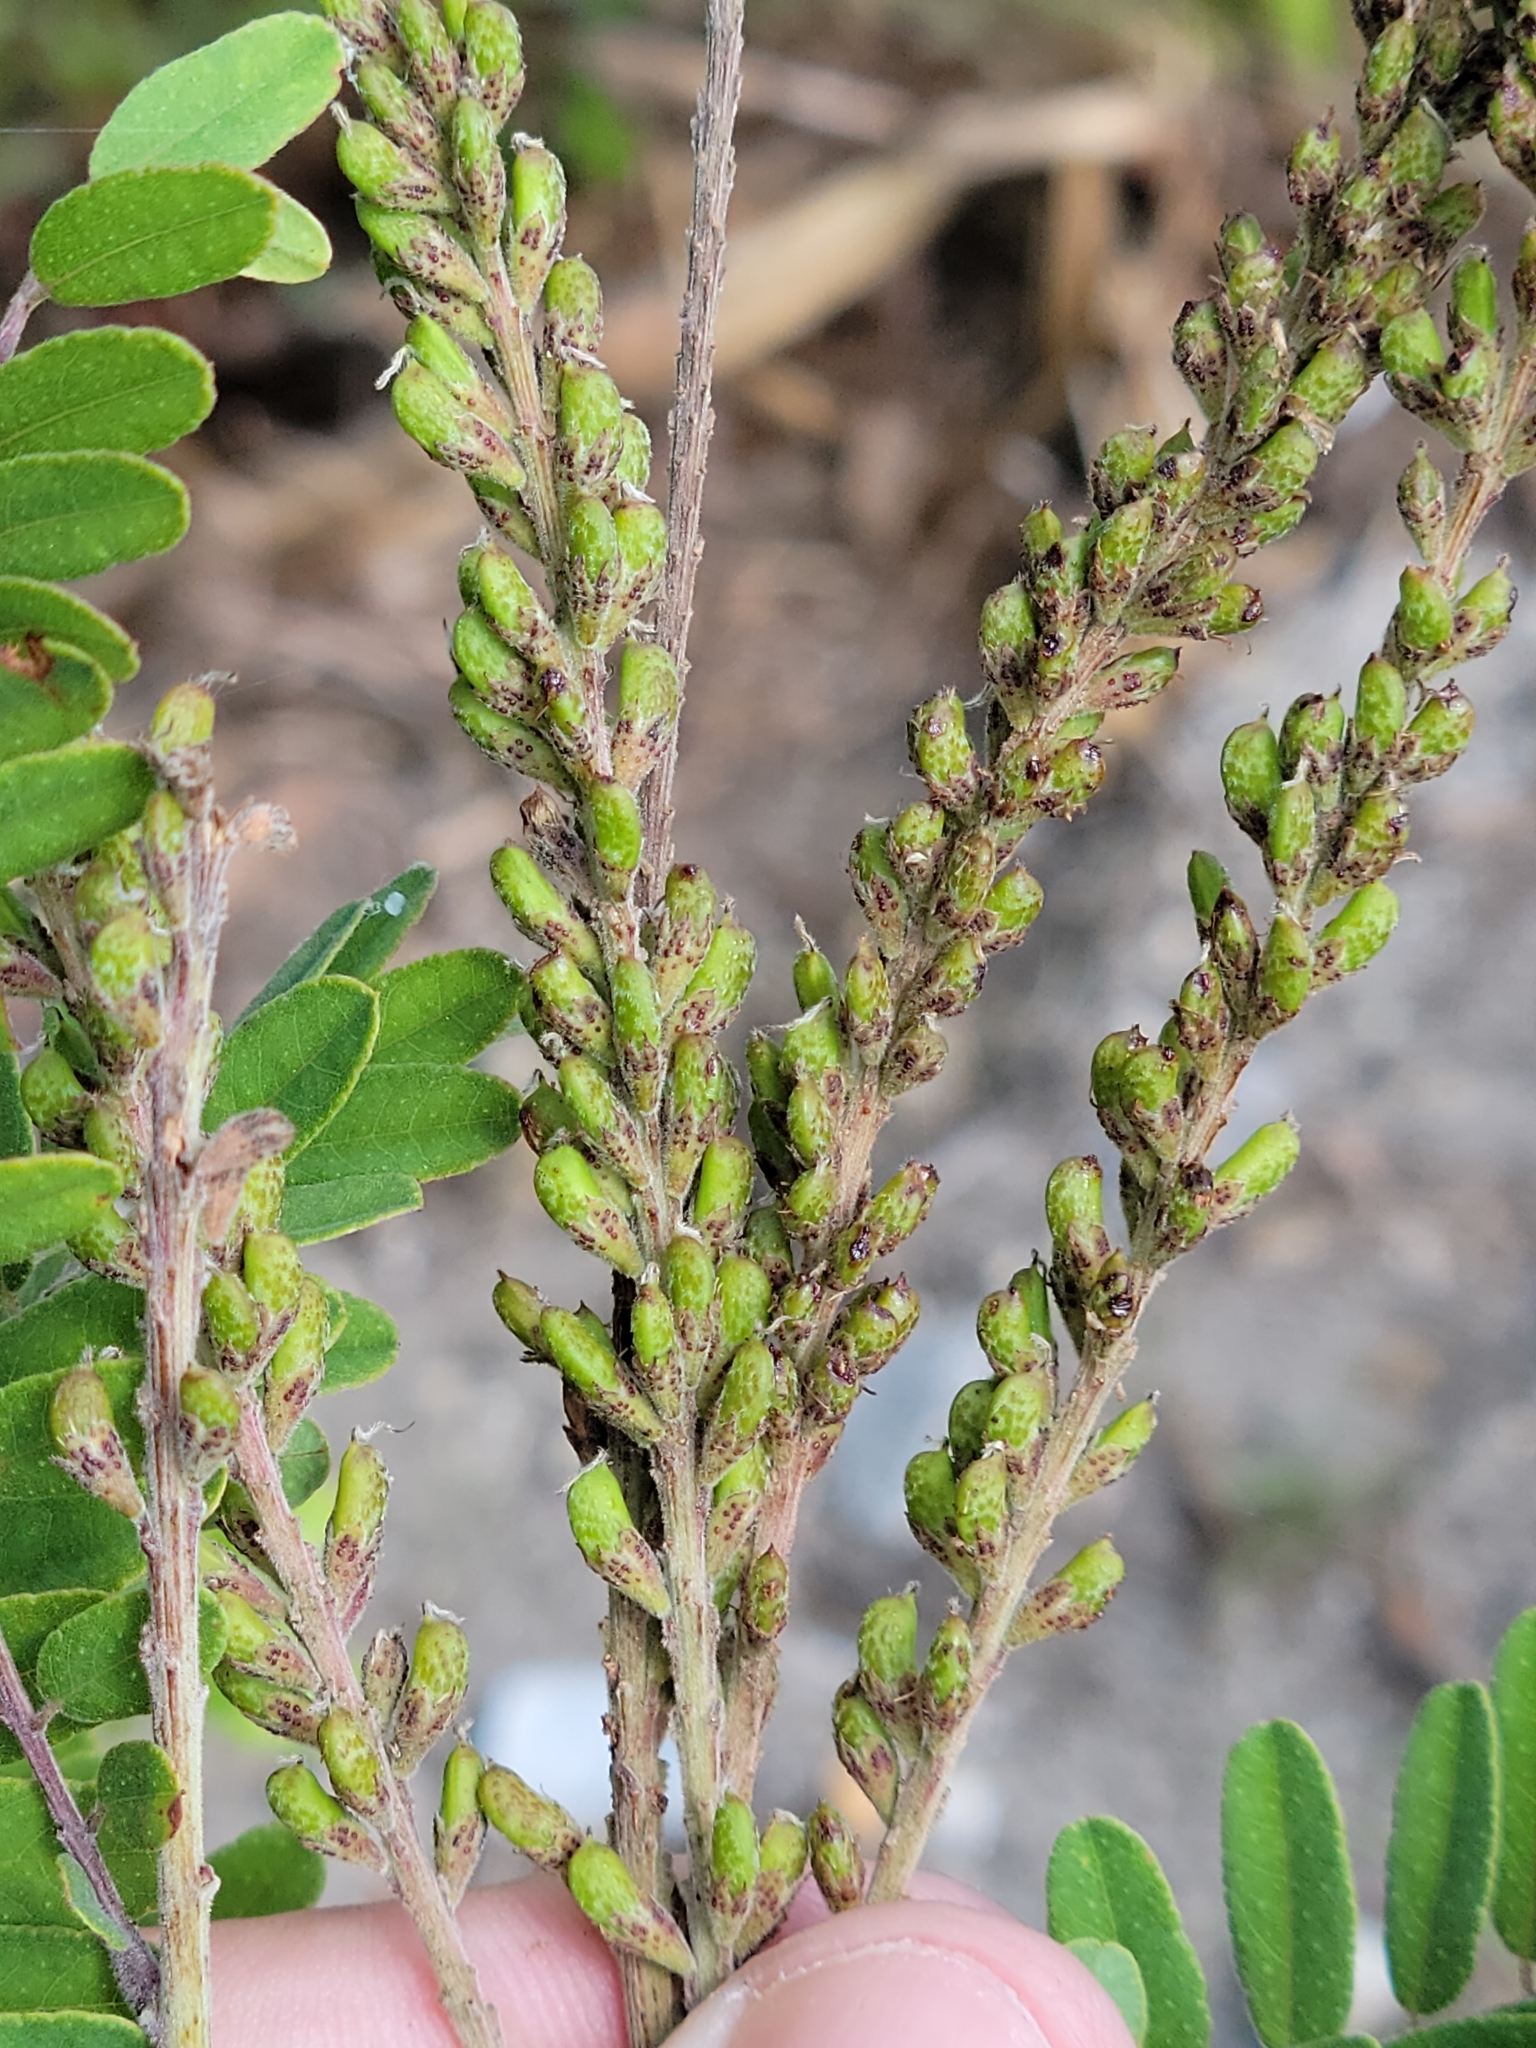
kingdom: Plantae
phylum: Tracheophyta
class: Magnoliopsida
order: Fabales
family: Fabaceae
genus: Amorpha
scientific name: Amorpha herbacea
